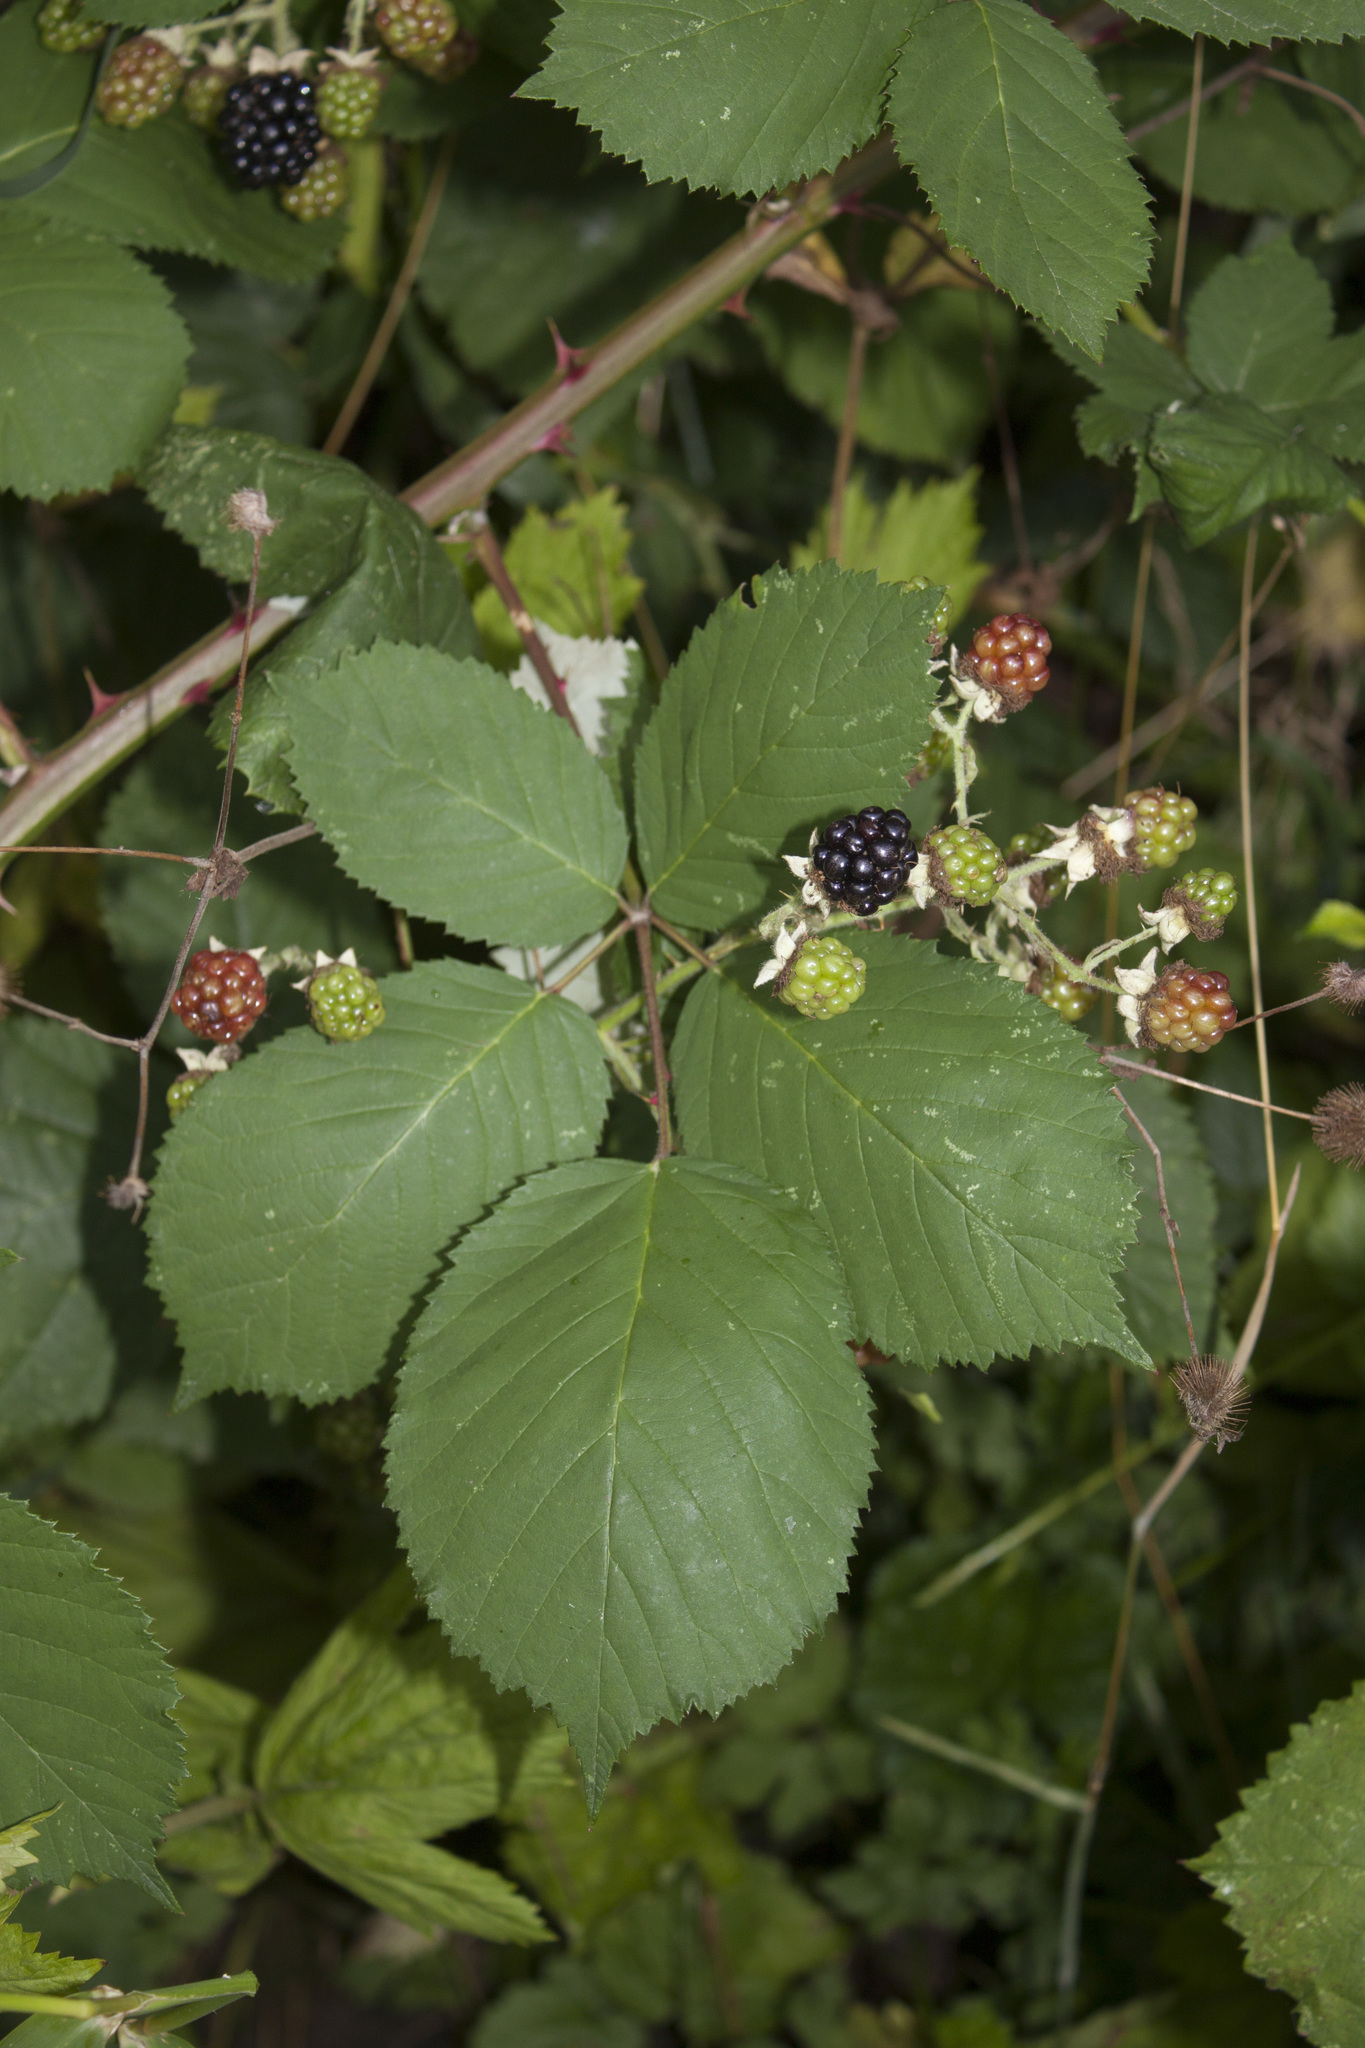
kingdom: Plantae
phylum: Tracheophyta
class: Magnoliopsida
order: Rosales
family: Rosaceae
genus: Rubus
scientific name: Rubus armeniacus
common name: Himalayan blackberry
